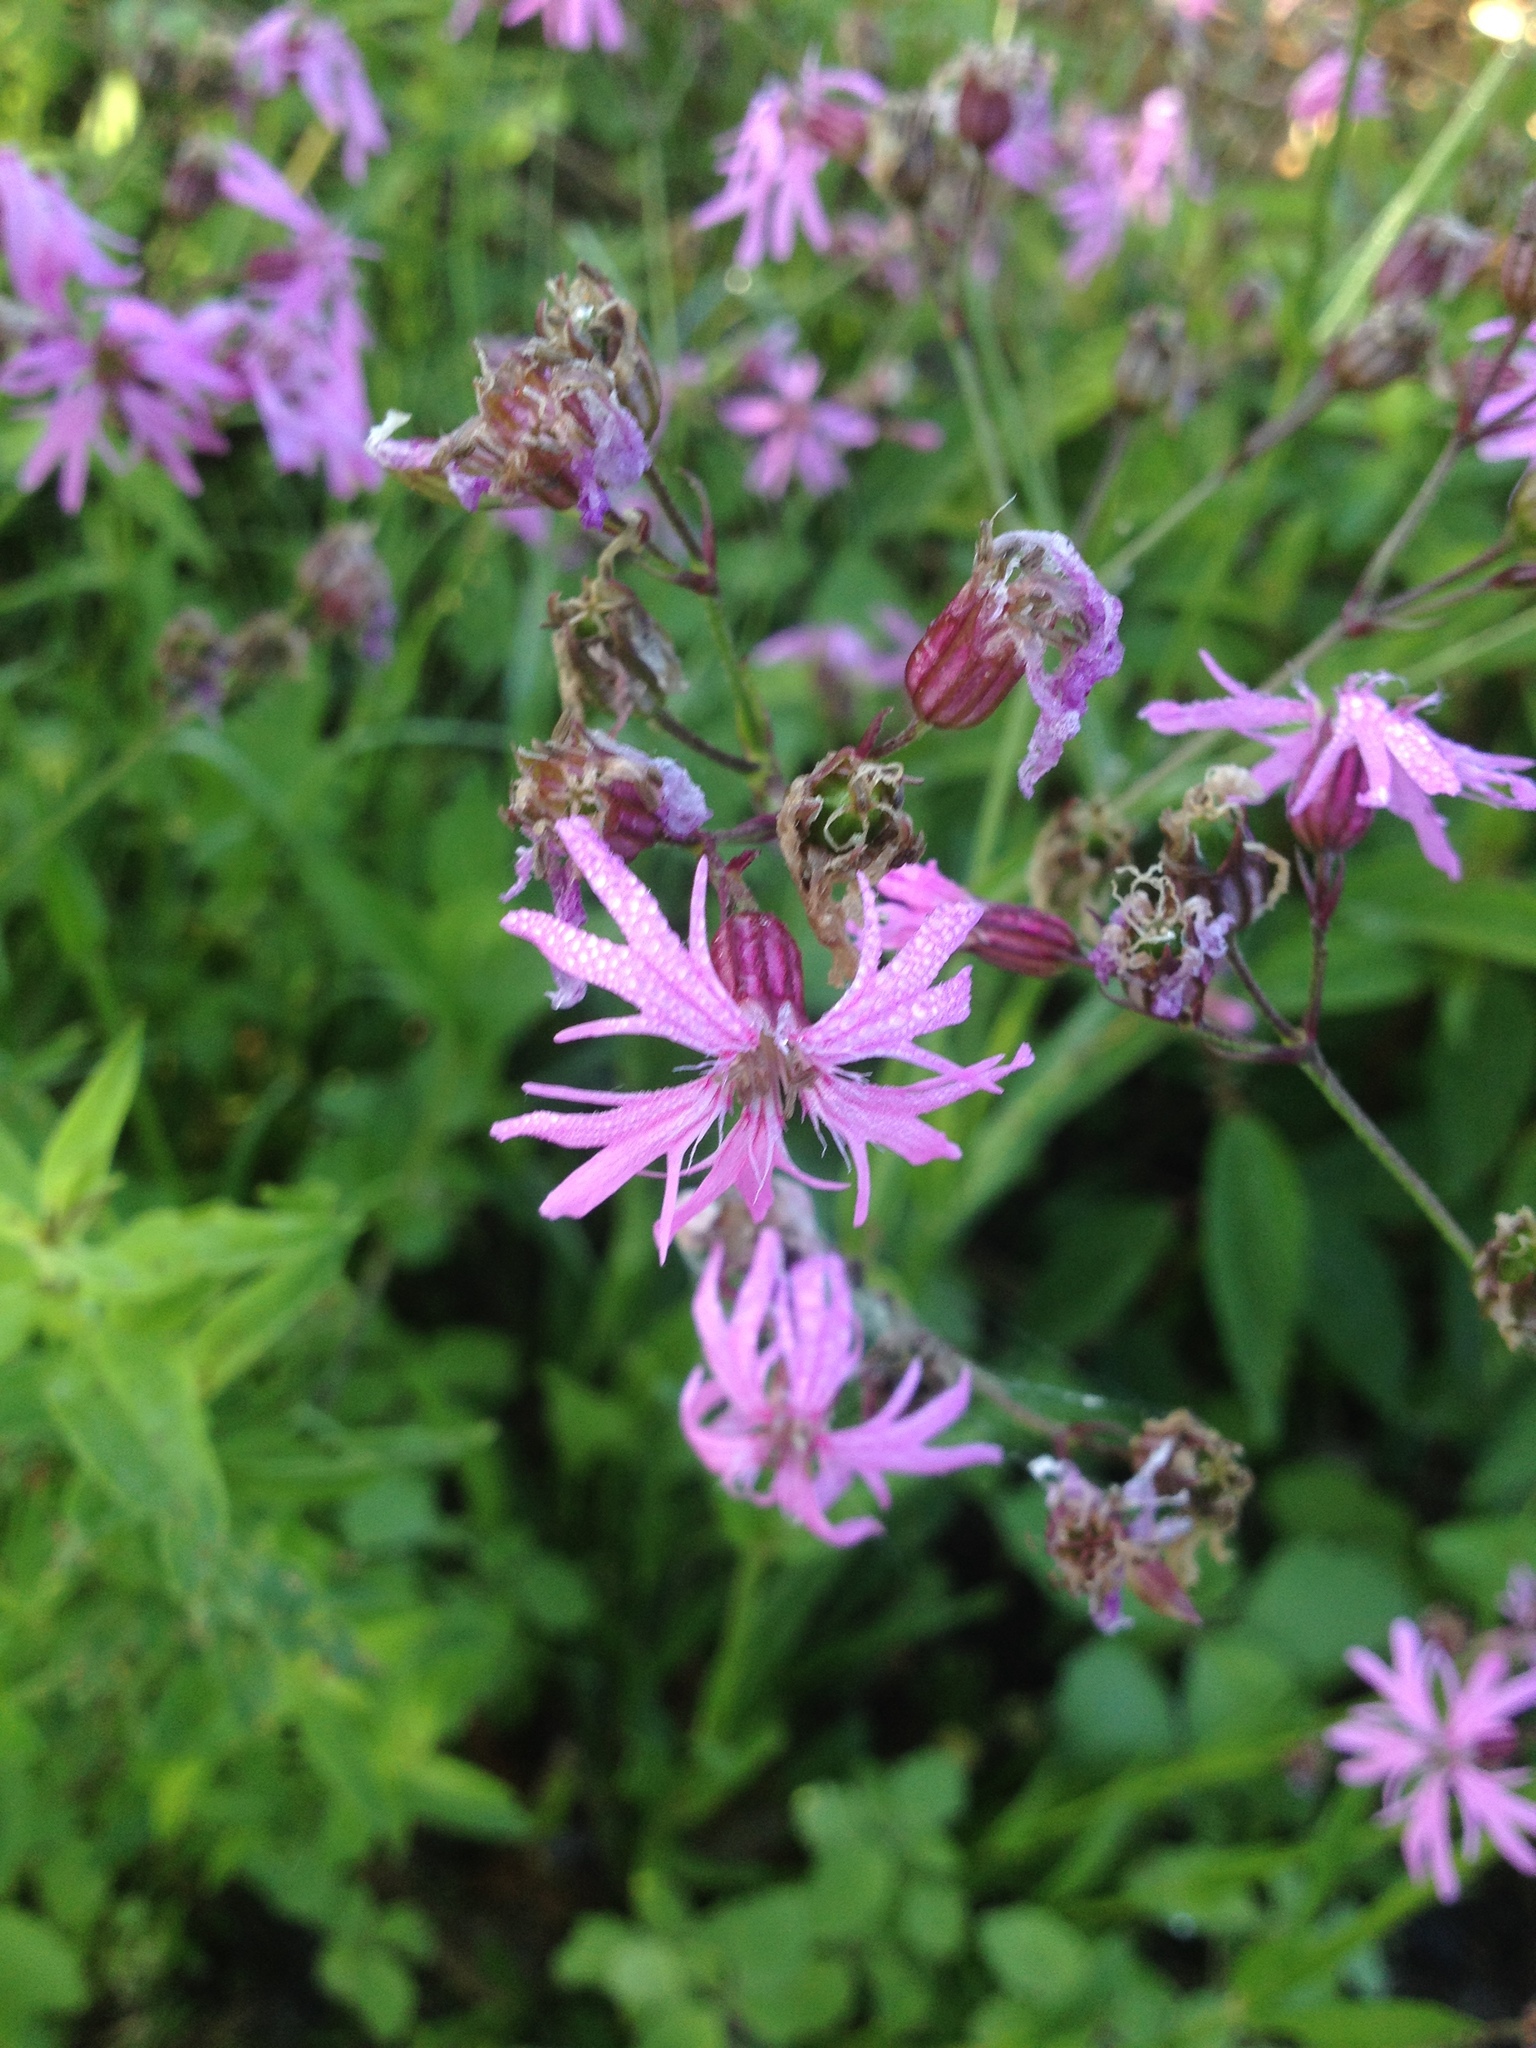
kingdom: Plantae
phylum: Tracheophyta
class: Magnoliopsida
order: Caryophyllales
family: Caryophyllaceae
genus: Silene
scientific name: Silene flos-cuculi
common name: Ragged-robin
